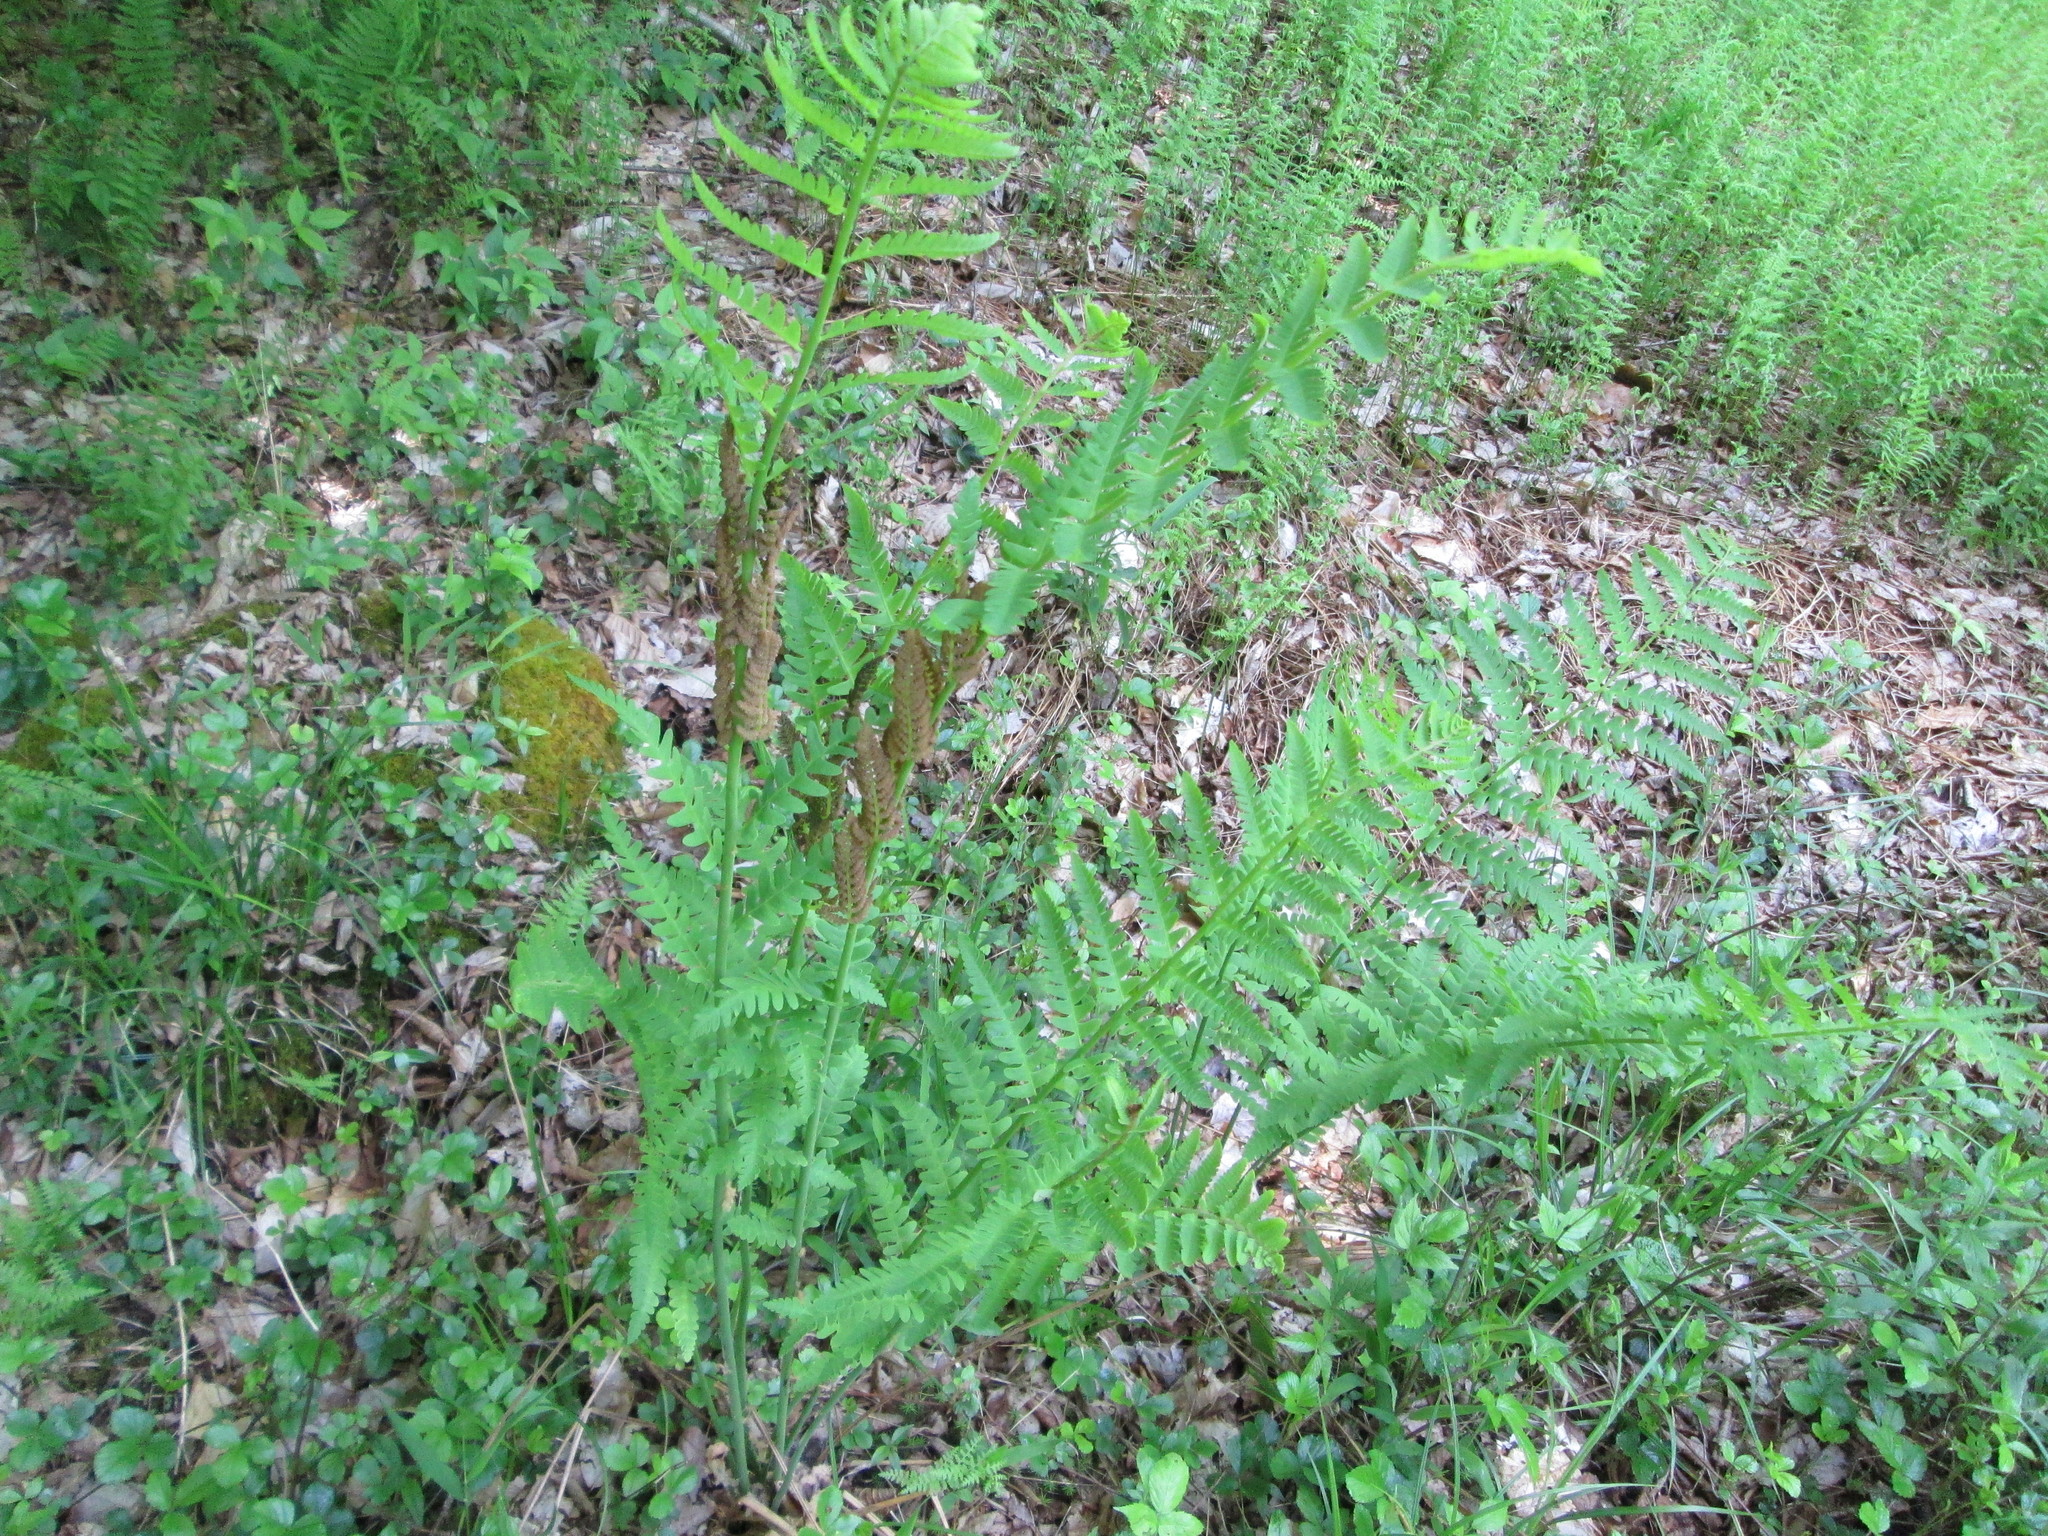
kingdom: Plantae
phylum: Tracheophyta
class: Polypodiopsida
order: Osmundales
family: Osmundaceae
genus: Claytosmunda
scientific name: Claytosmunda claytoniana
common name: Clayton's fern
